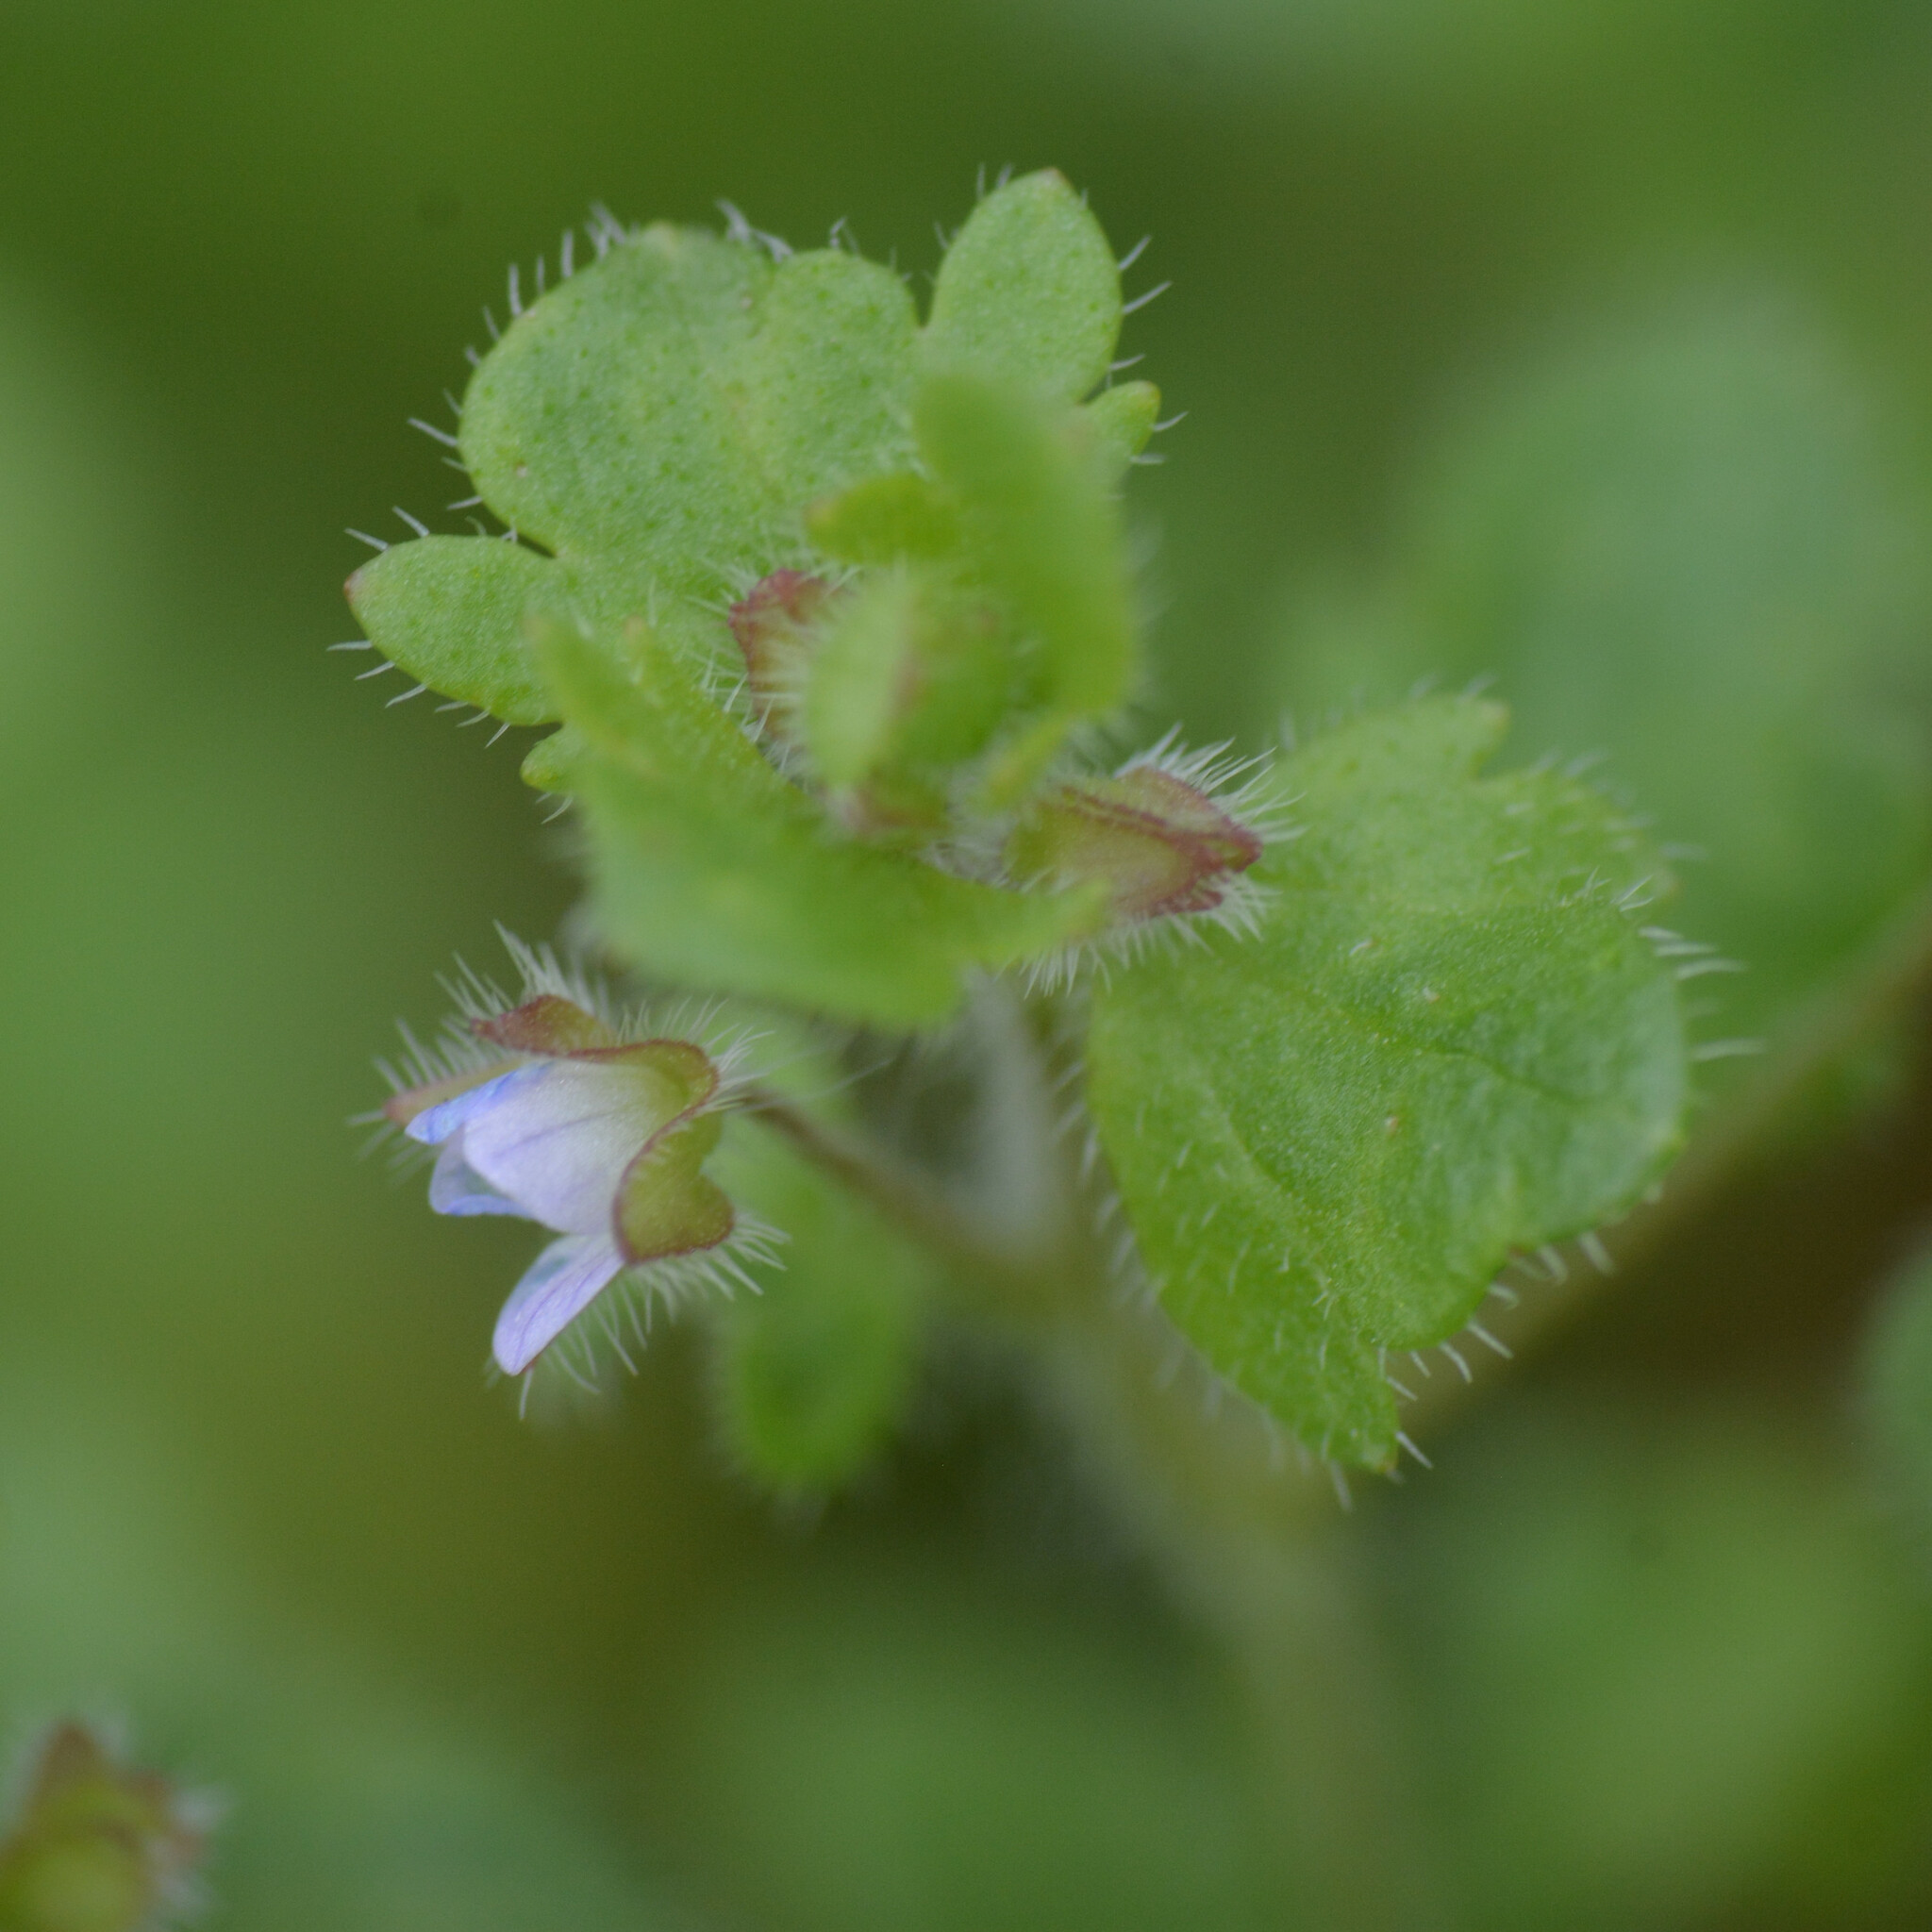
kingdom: Plantae
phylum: Tracheophyta
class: Magnoliopsida
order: Lamiales
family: Plantaginaceae
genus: Veronica
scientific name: Veronica sublobata
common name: False ivy-leaved speedwell
